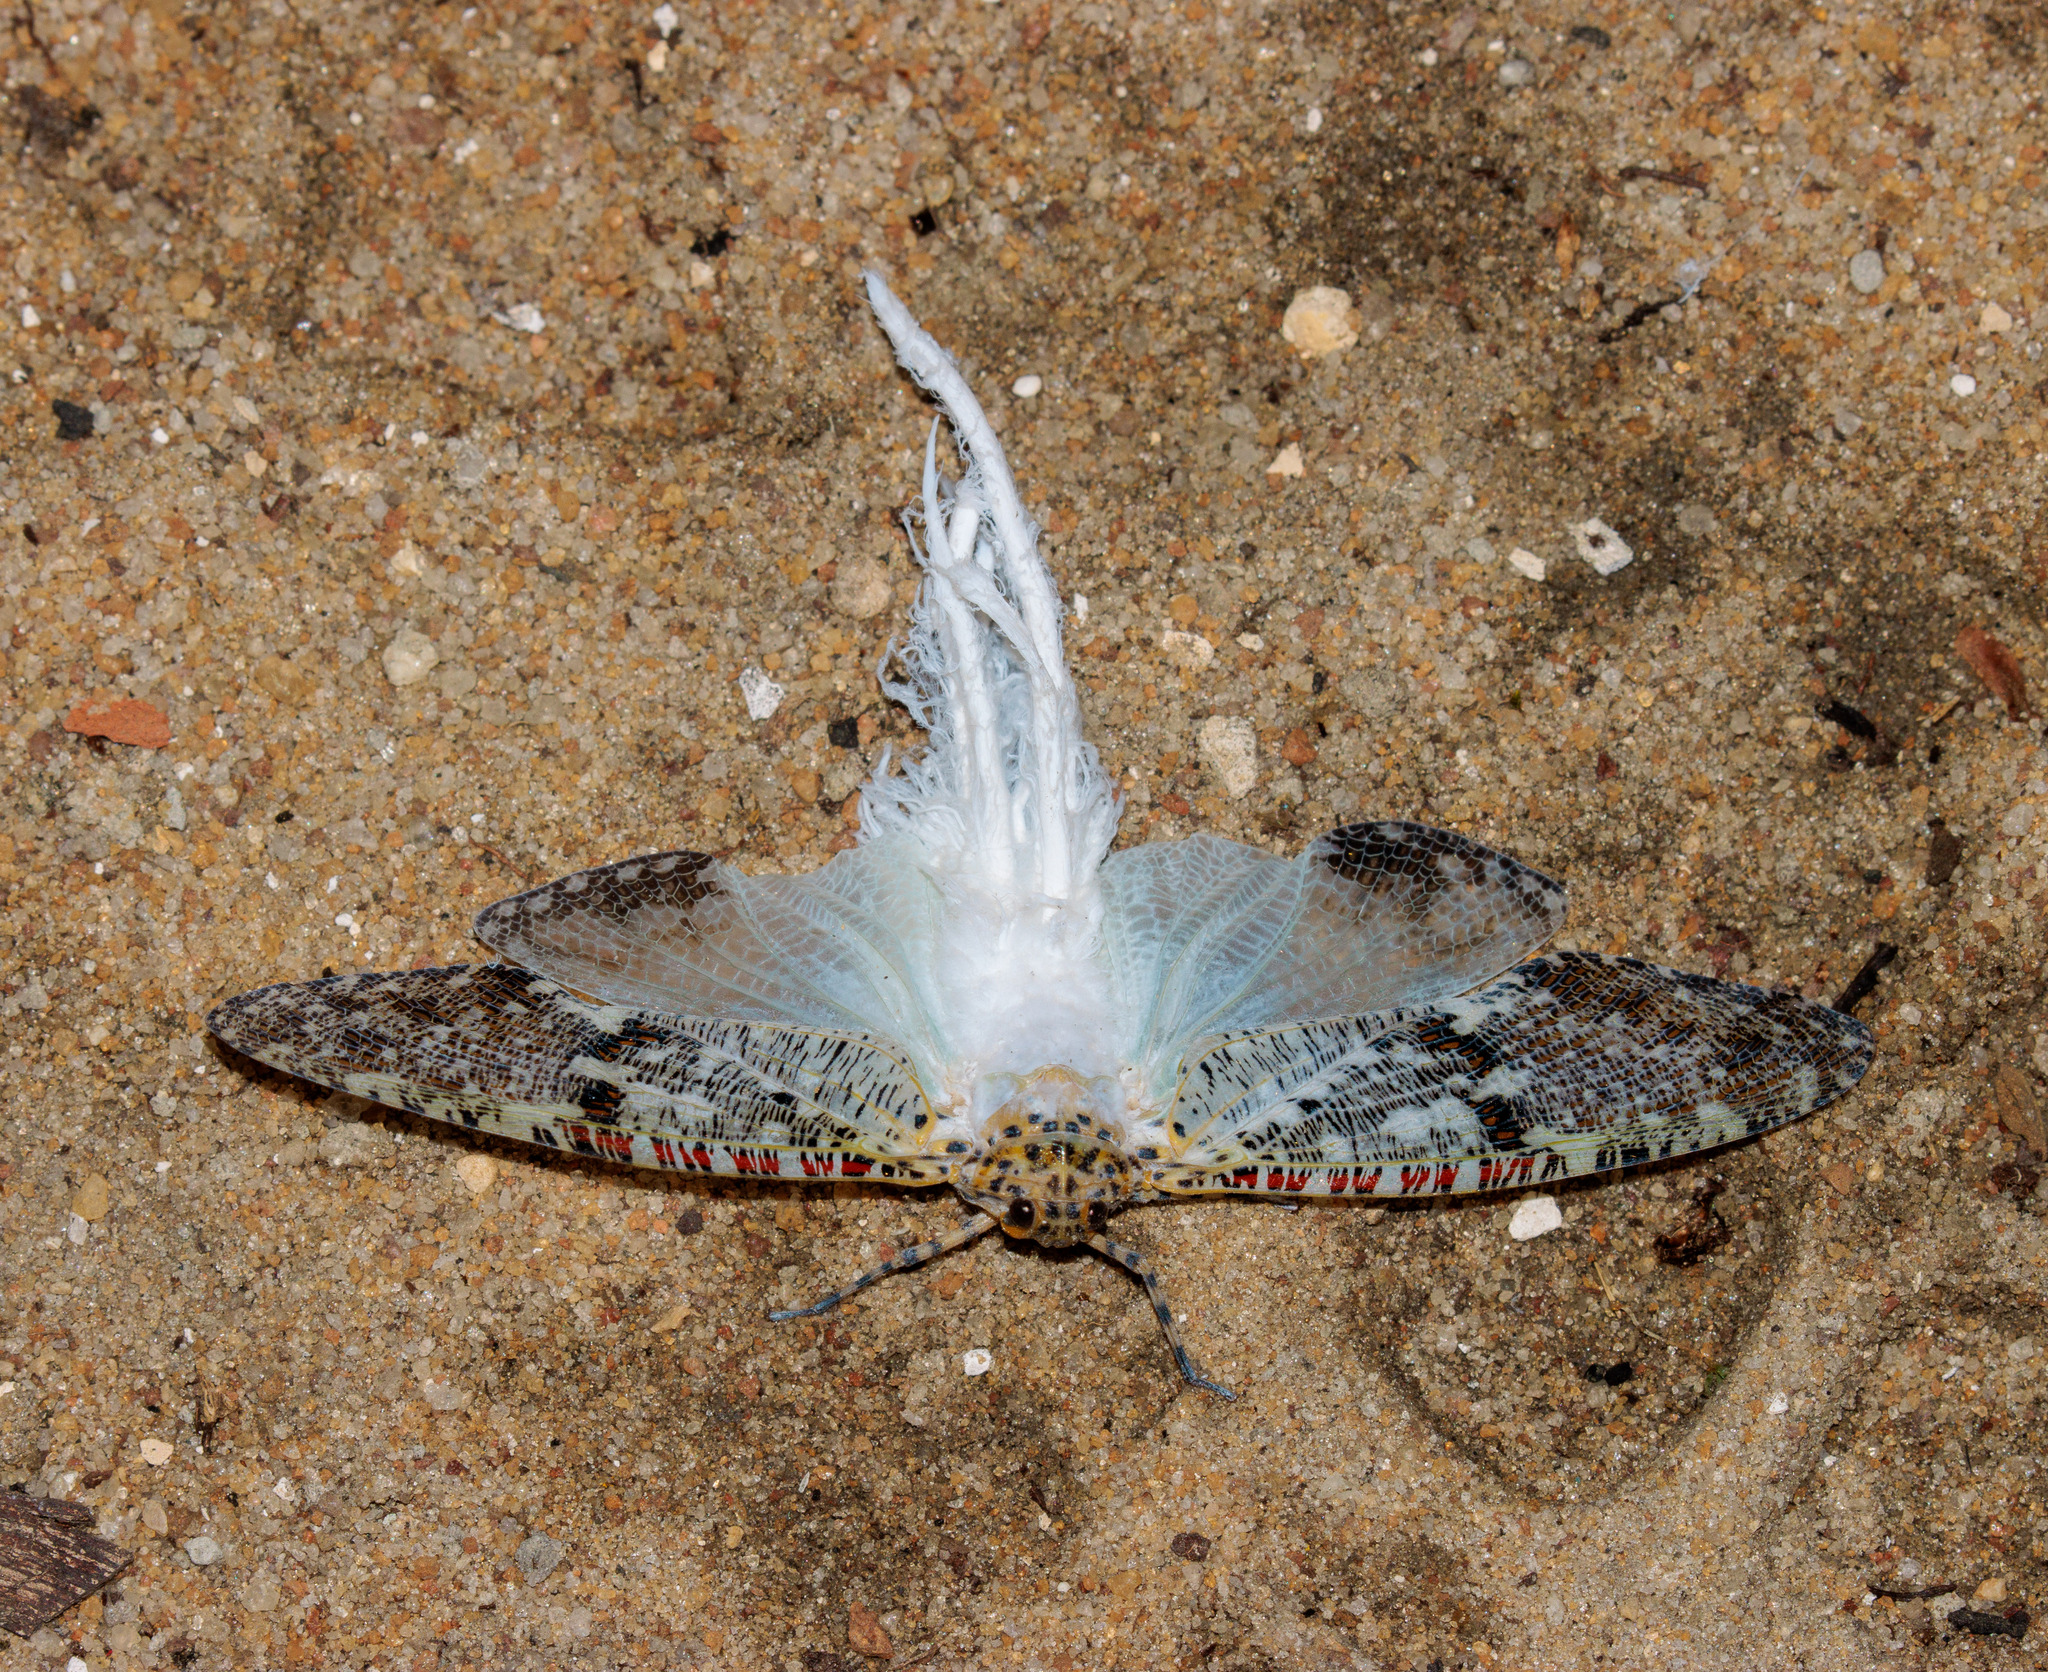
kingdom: Animalia
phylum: Arthropoda
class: Insecta
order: Hemiptera
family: Fulgoridae
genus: Phenax
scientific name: Phenax variegata
